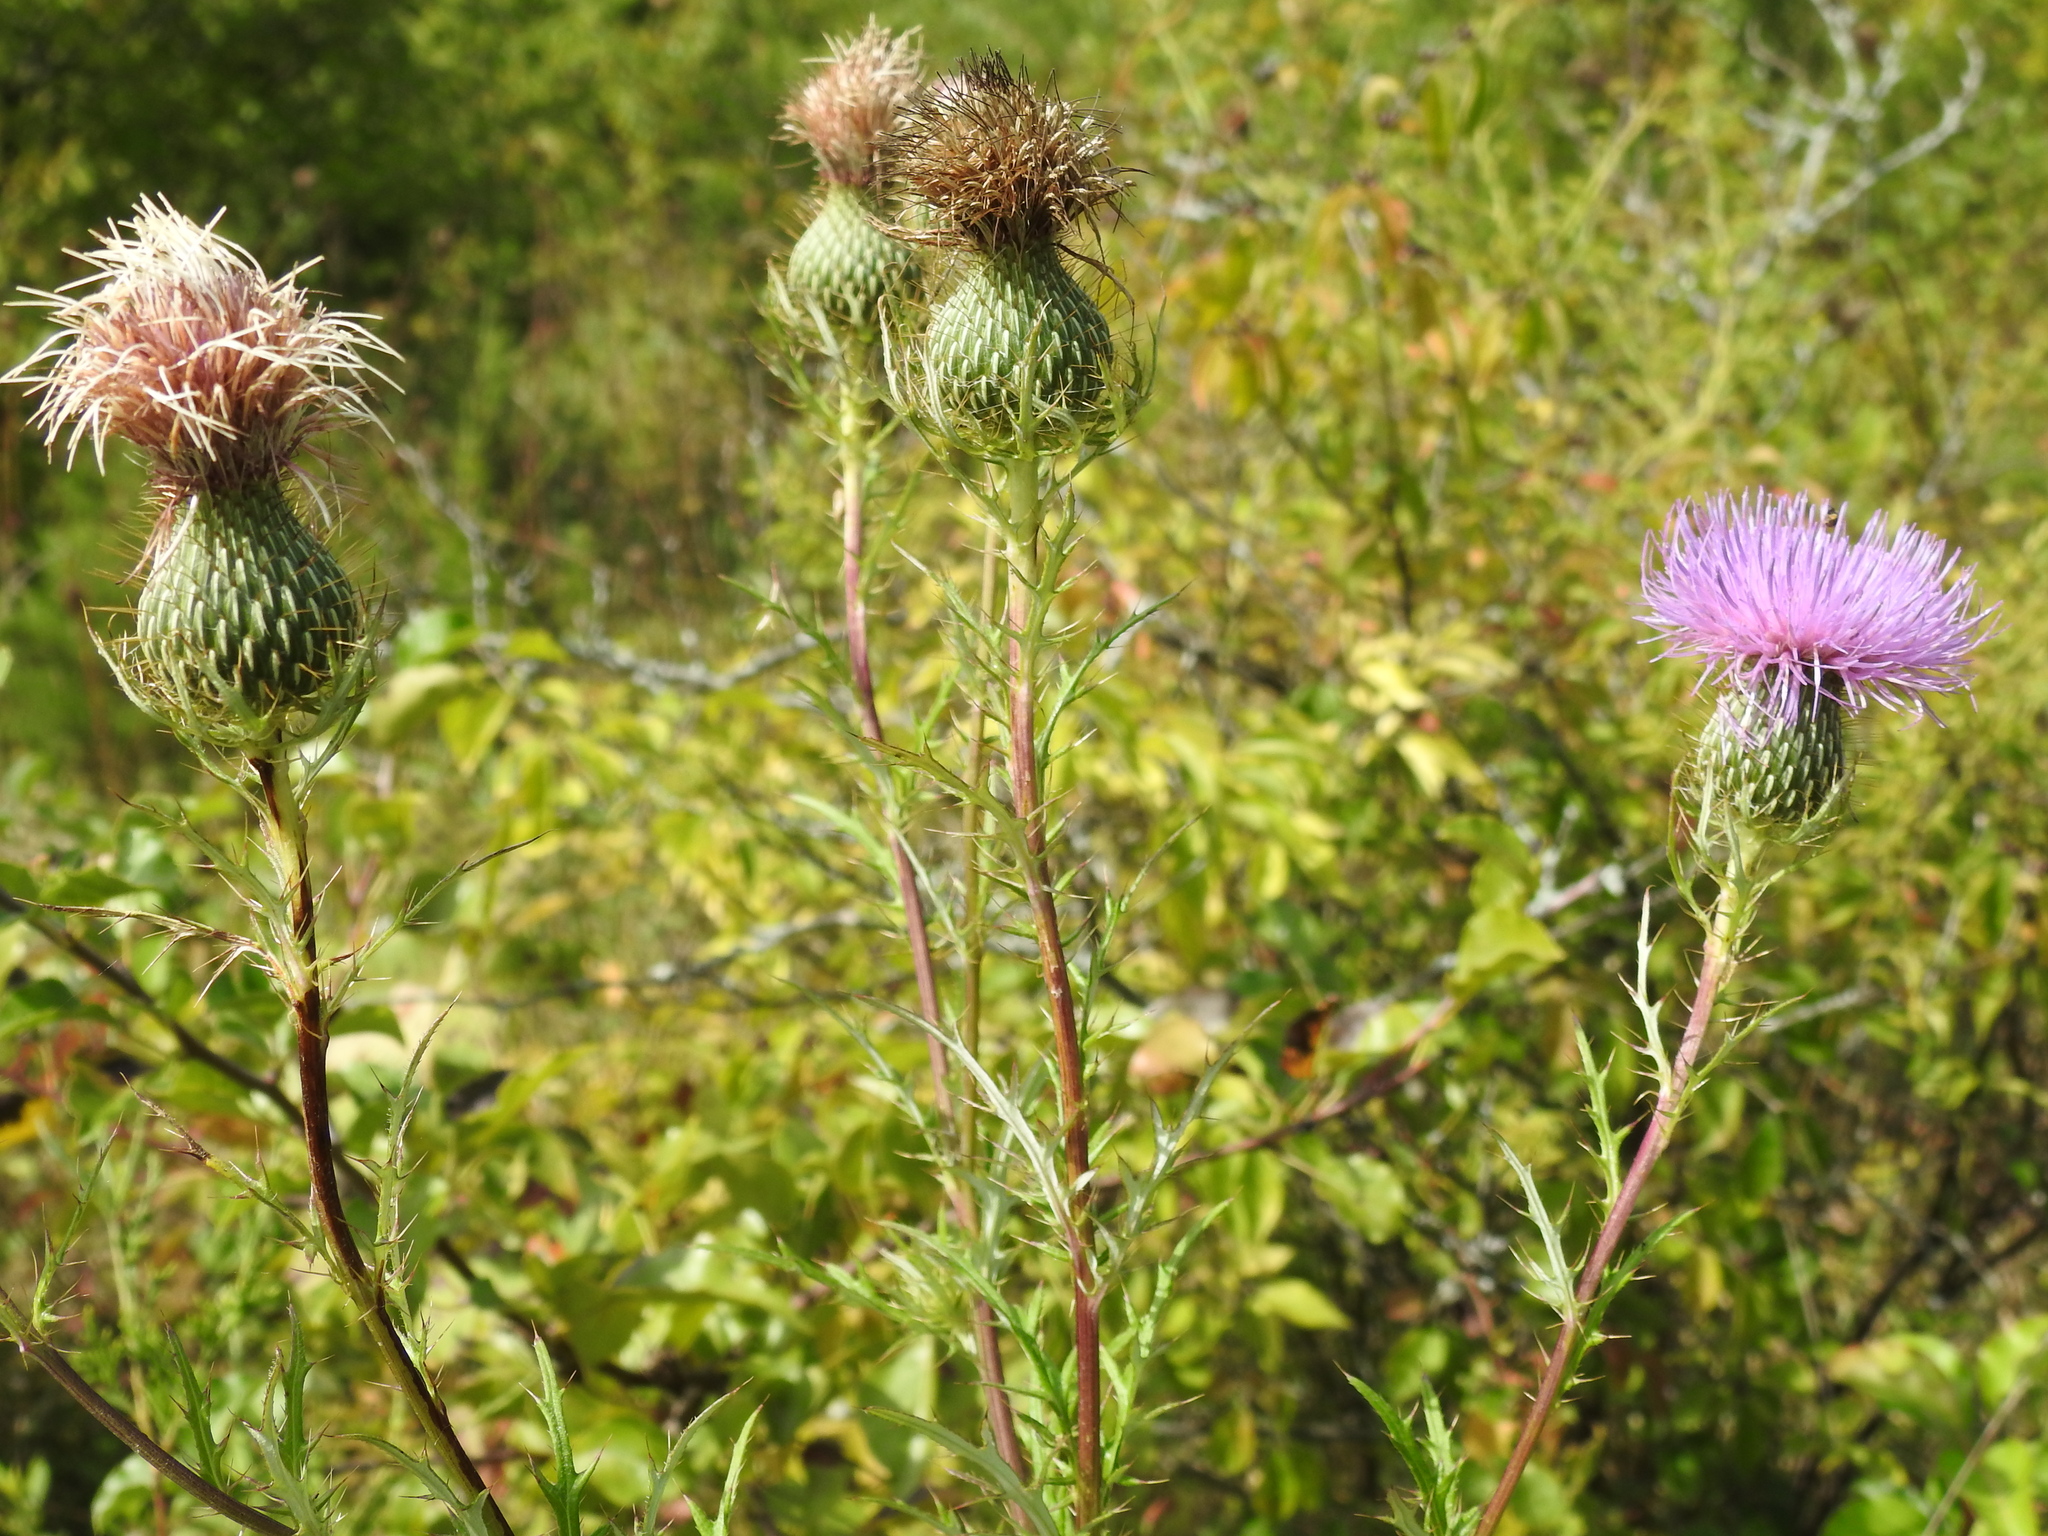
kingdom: Plantae
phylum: Tracheophyta
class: Magnoliopsida
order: Asterales
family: Asteraceae
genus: Cirsium
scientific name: Cirsium discolor
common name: Field thistle
